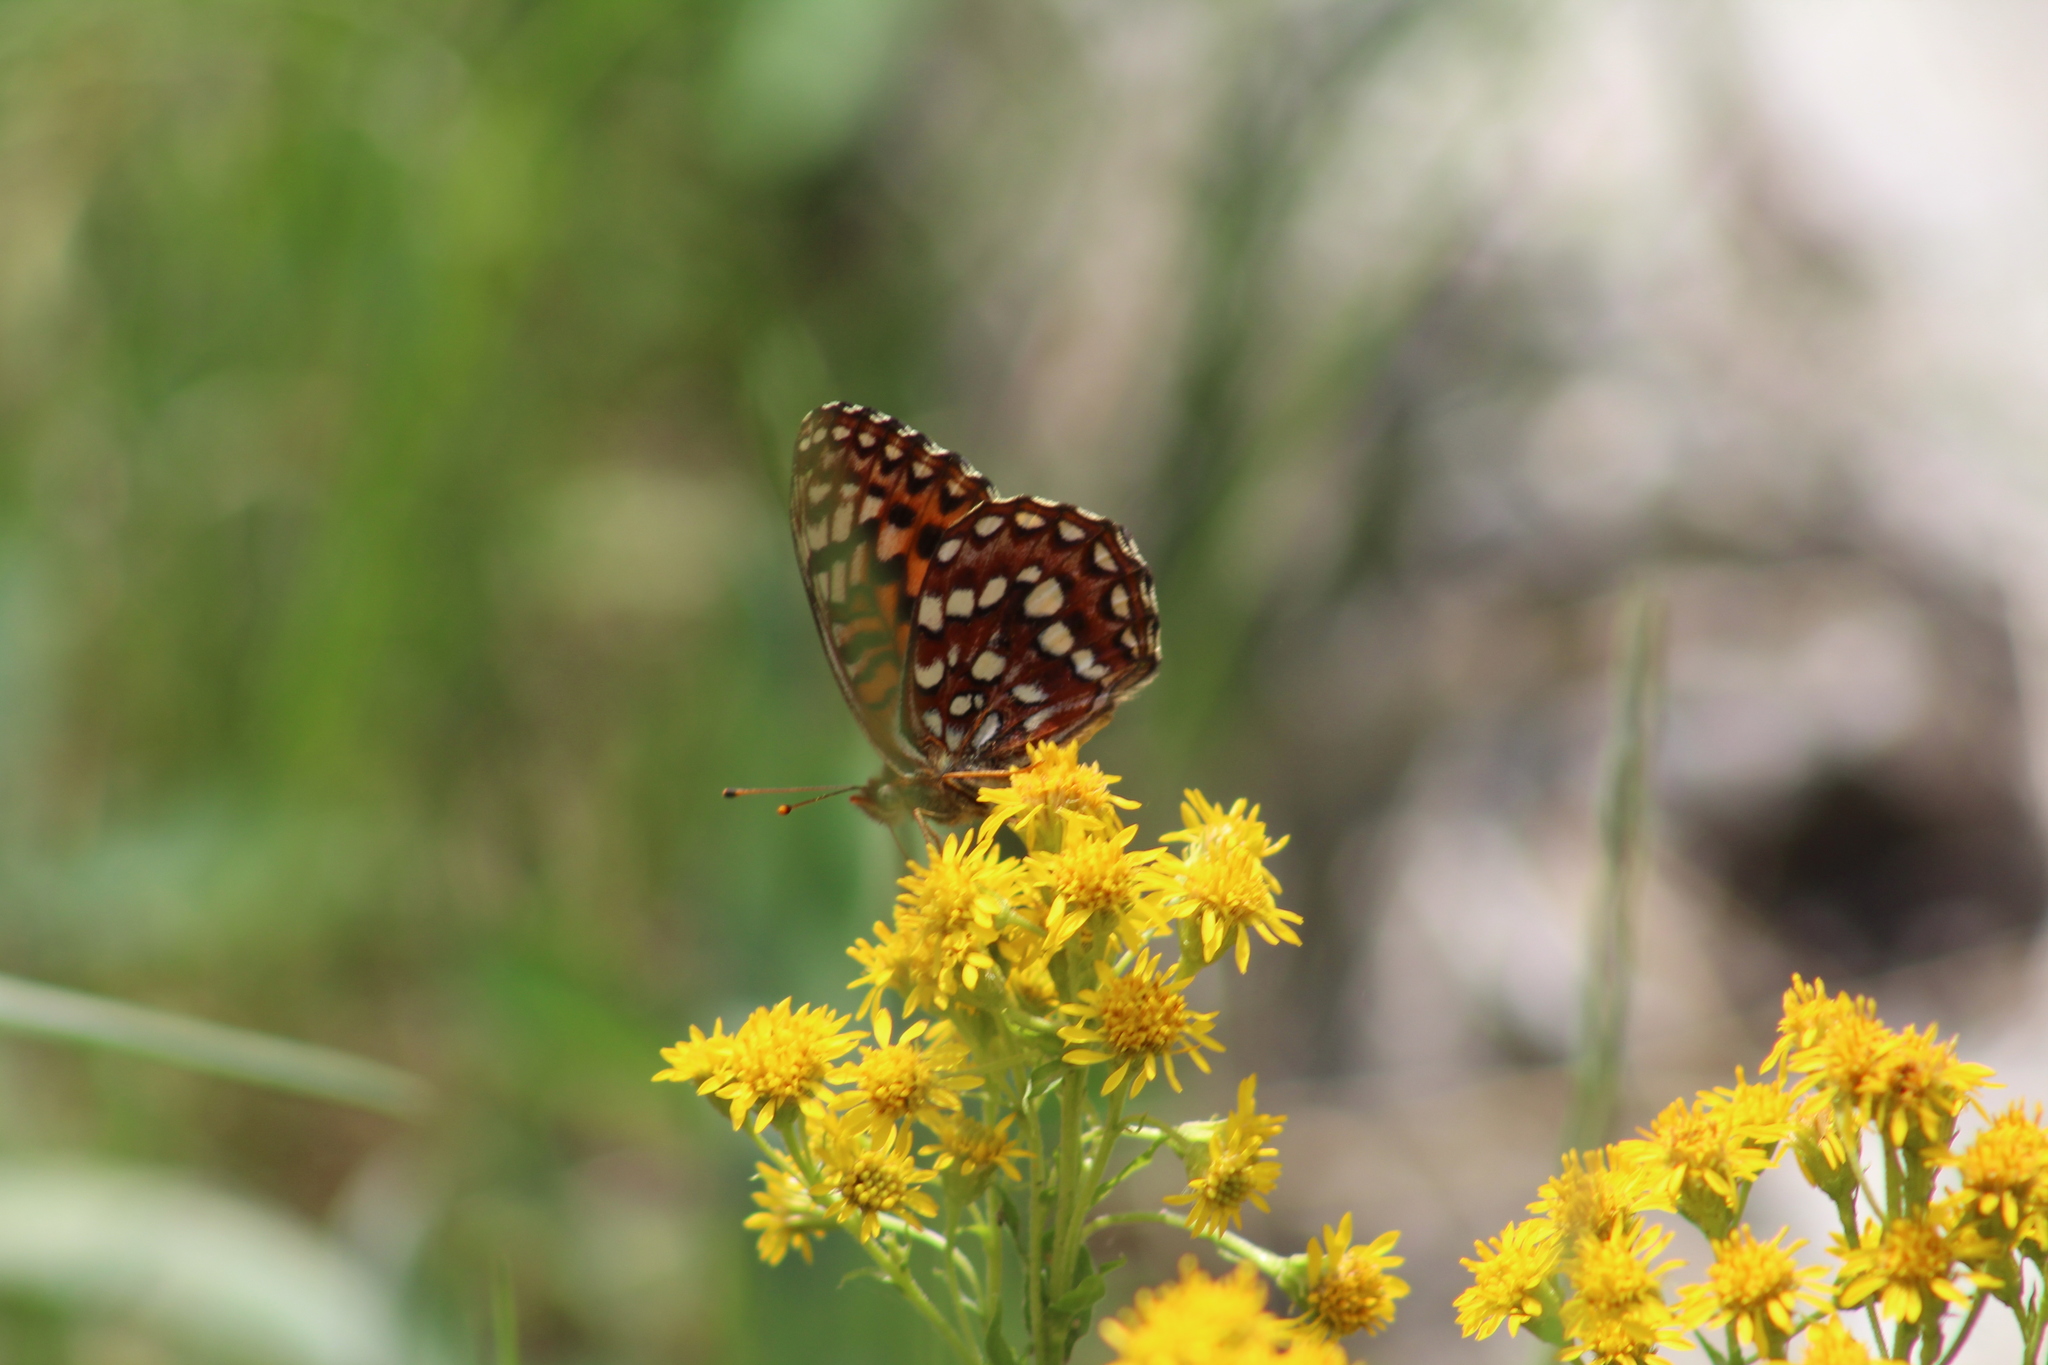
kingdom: Animalia
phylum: Arthropoda
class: Insecta
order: Lepidoptera
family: Nymphalidae
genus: Speyeria
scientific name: Speyeria hydaspe
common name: Hydaspe fritillary
